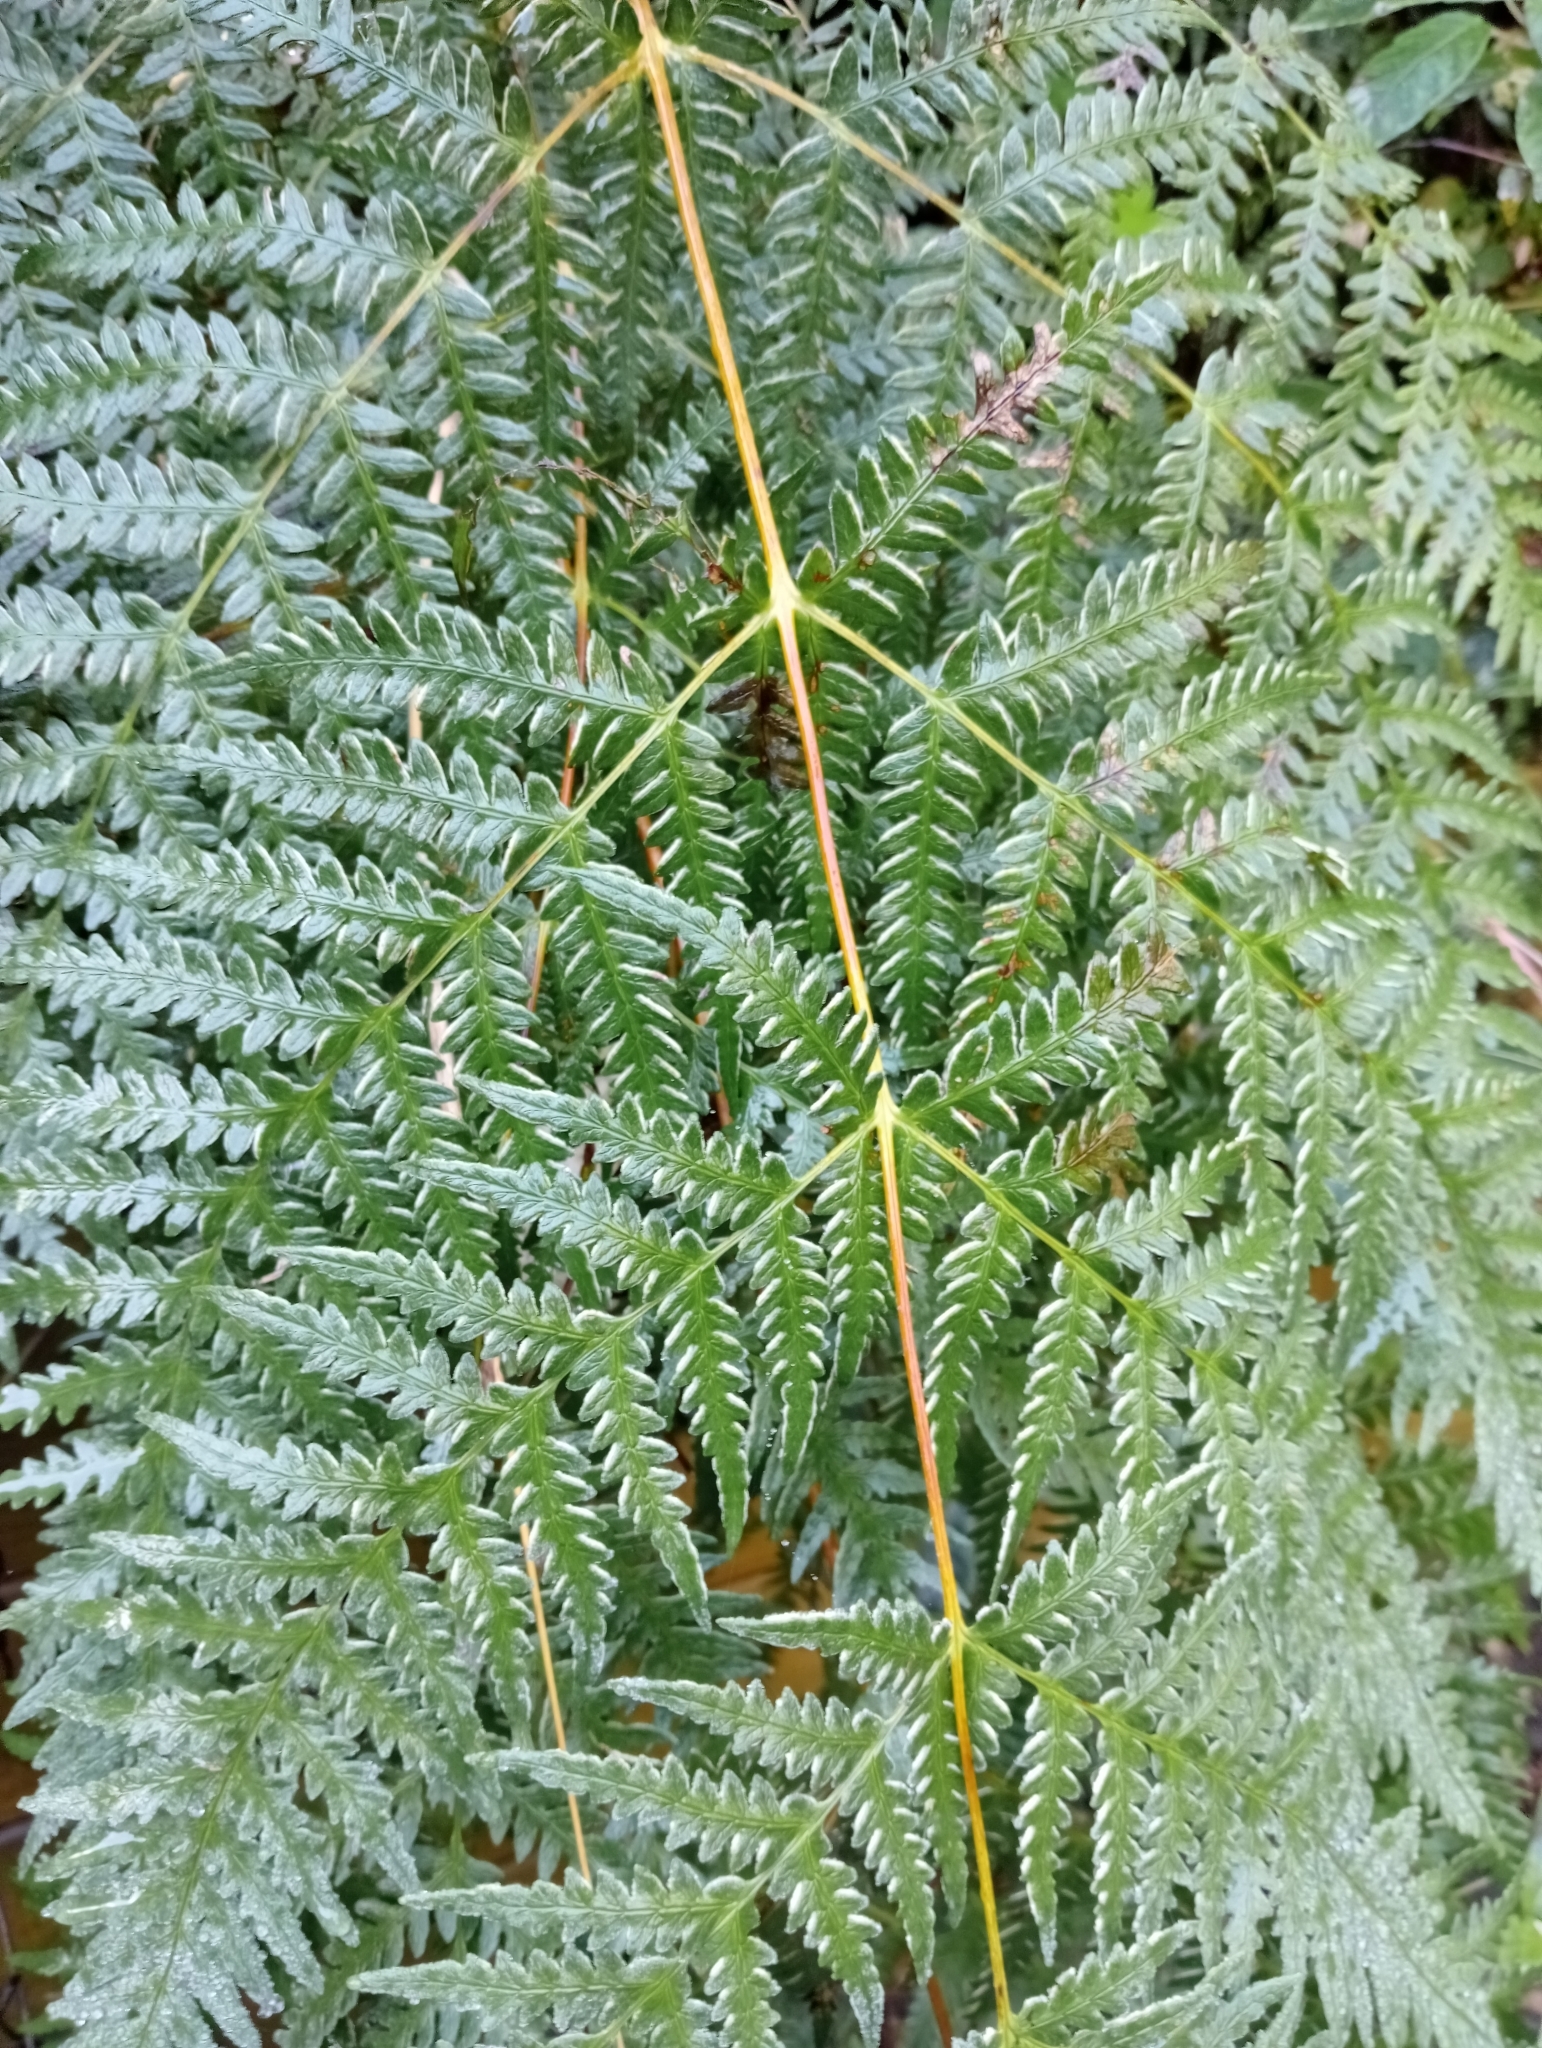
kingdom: Plantae
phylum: Tracheophyta
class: Polypodiopsida
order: Polypodiales
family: Dennstaedtiaceae
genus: Histiopteris
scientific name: Histiopteris incisa
